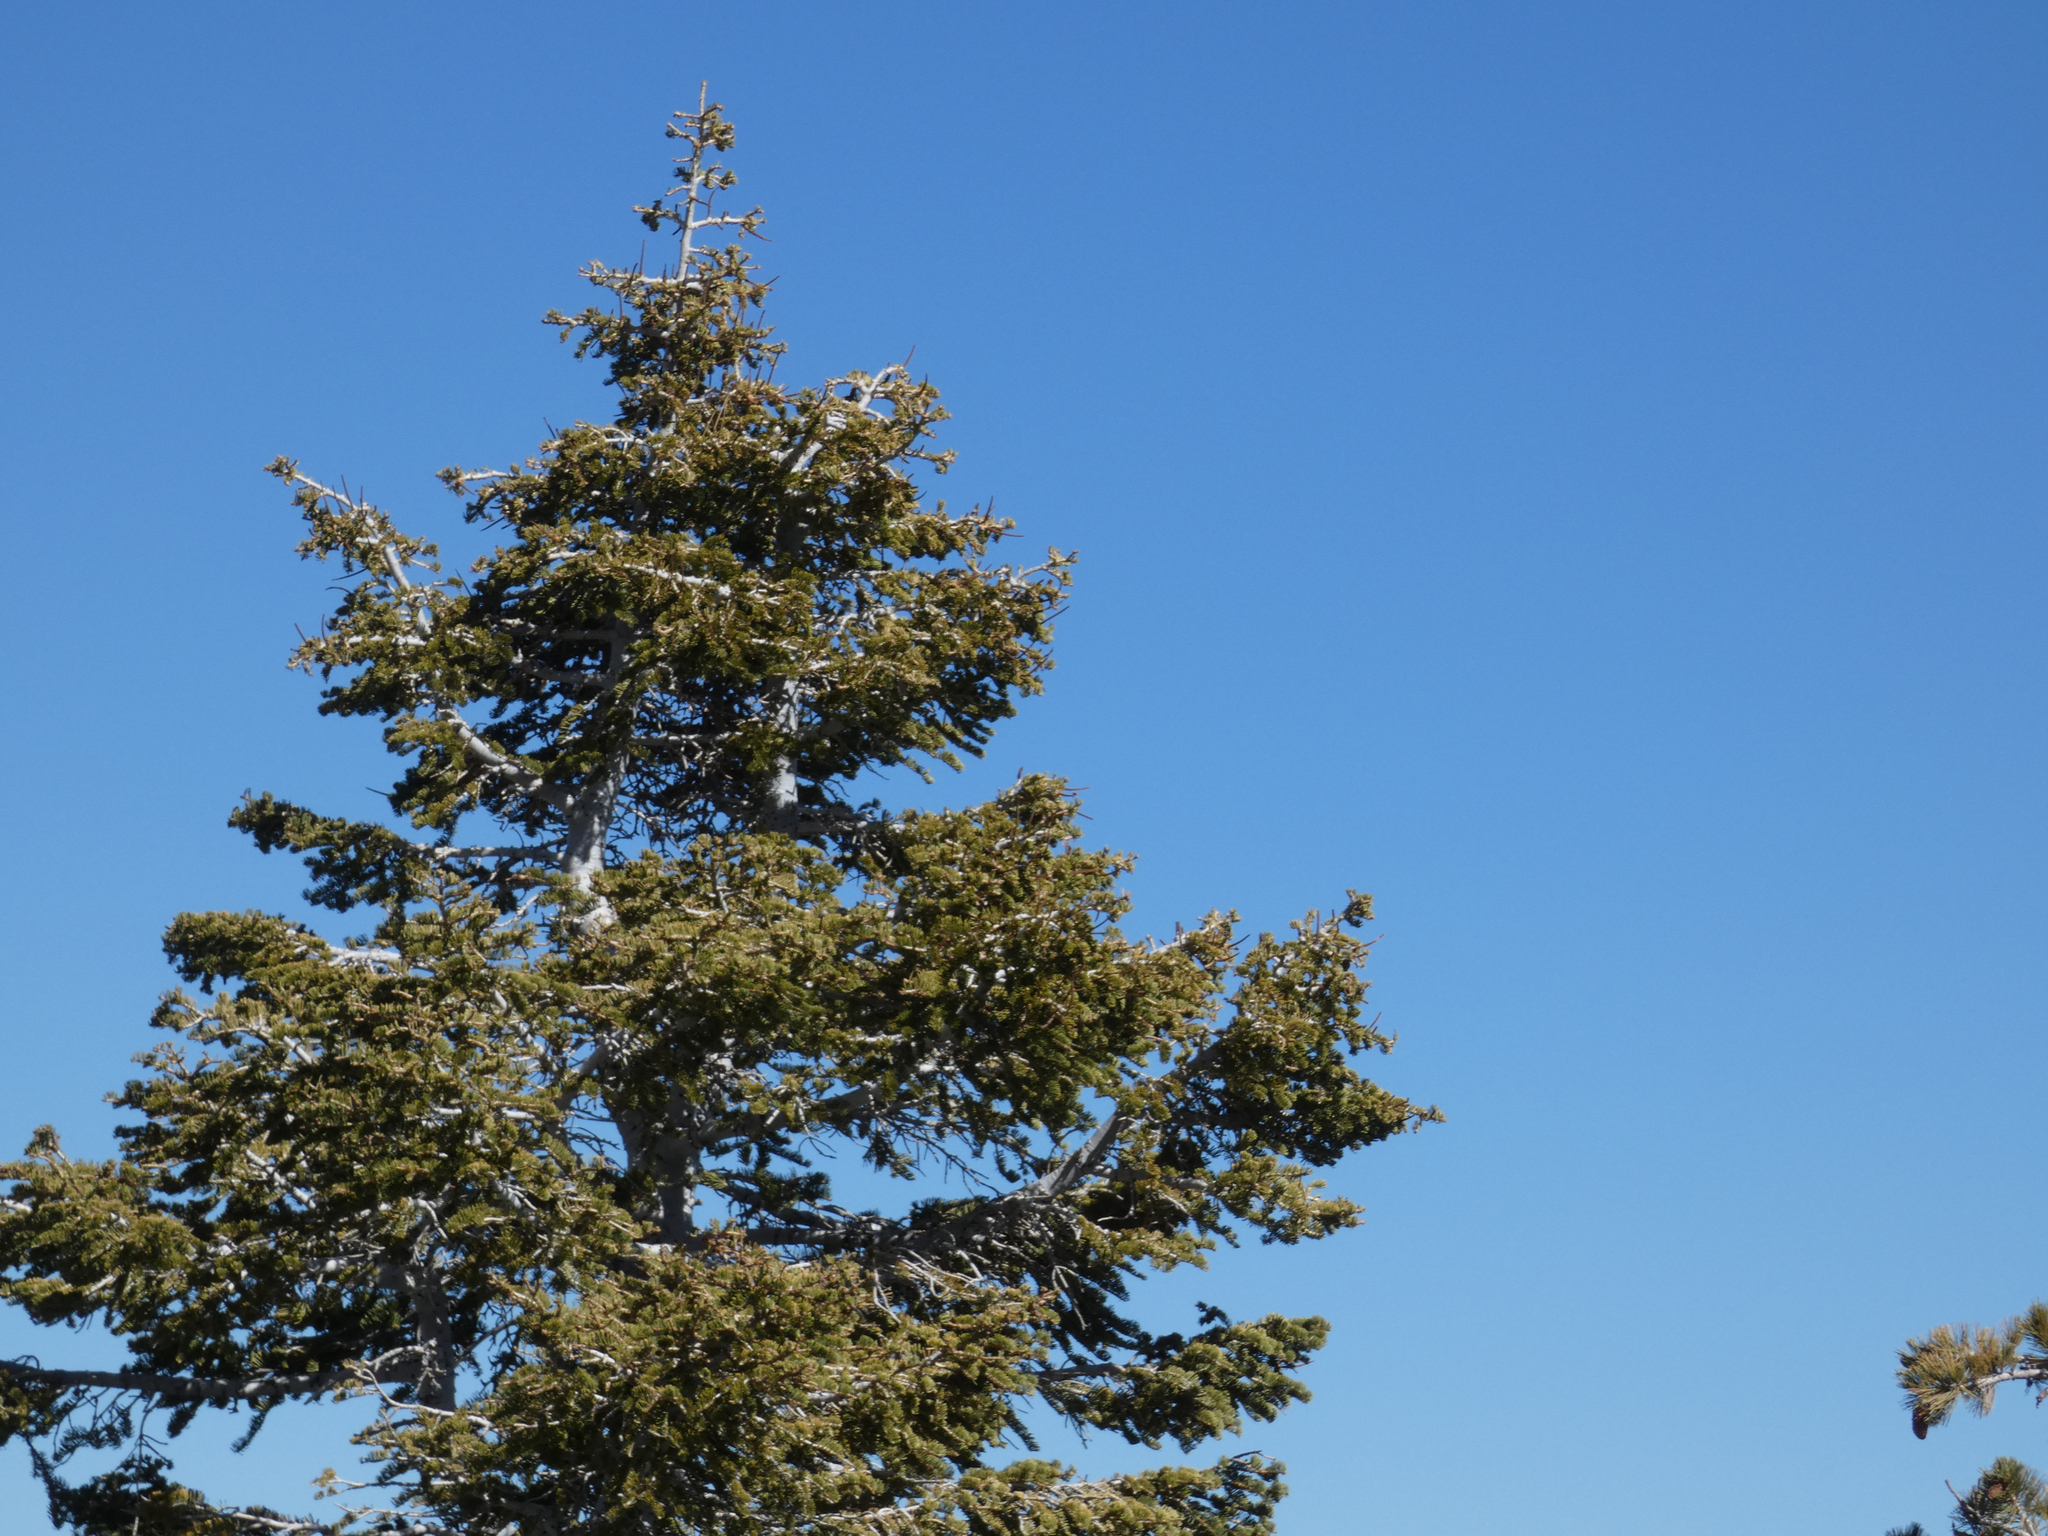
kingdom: Plantae
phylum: Tracheophyta
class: Pinopsida
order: Pinales
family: Pinaceae
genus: Abies
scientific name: Abies concolor
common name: Colorado fir
